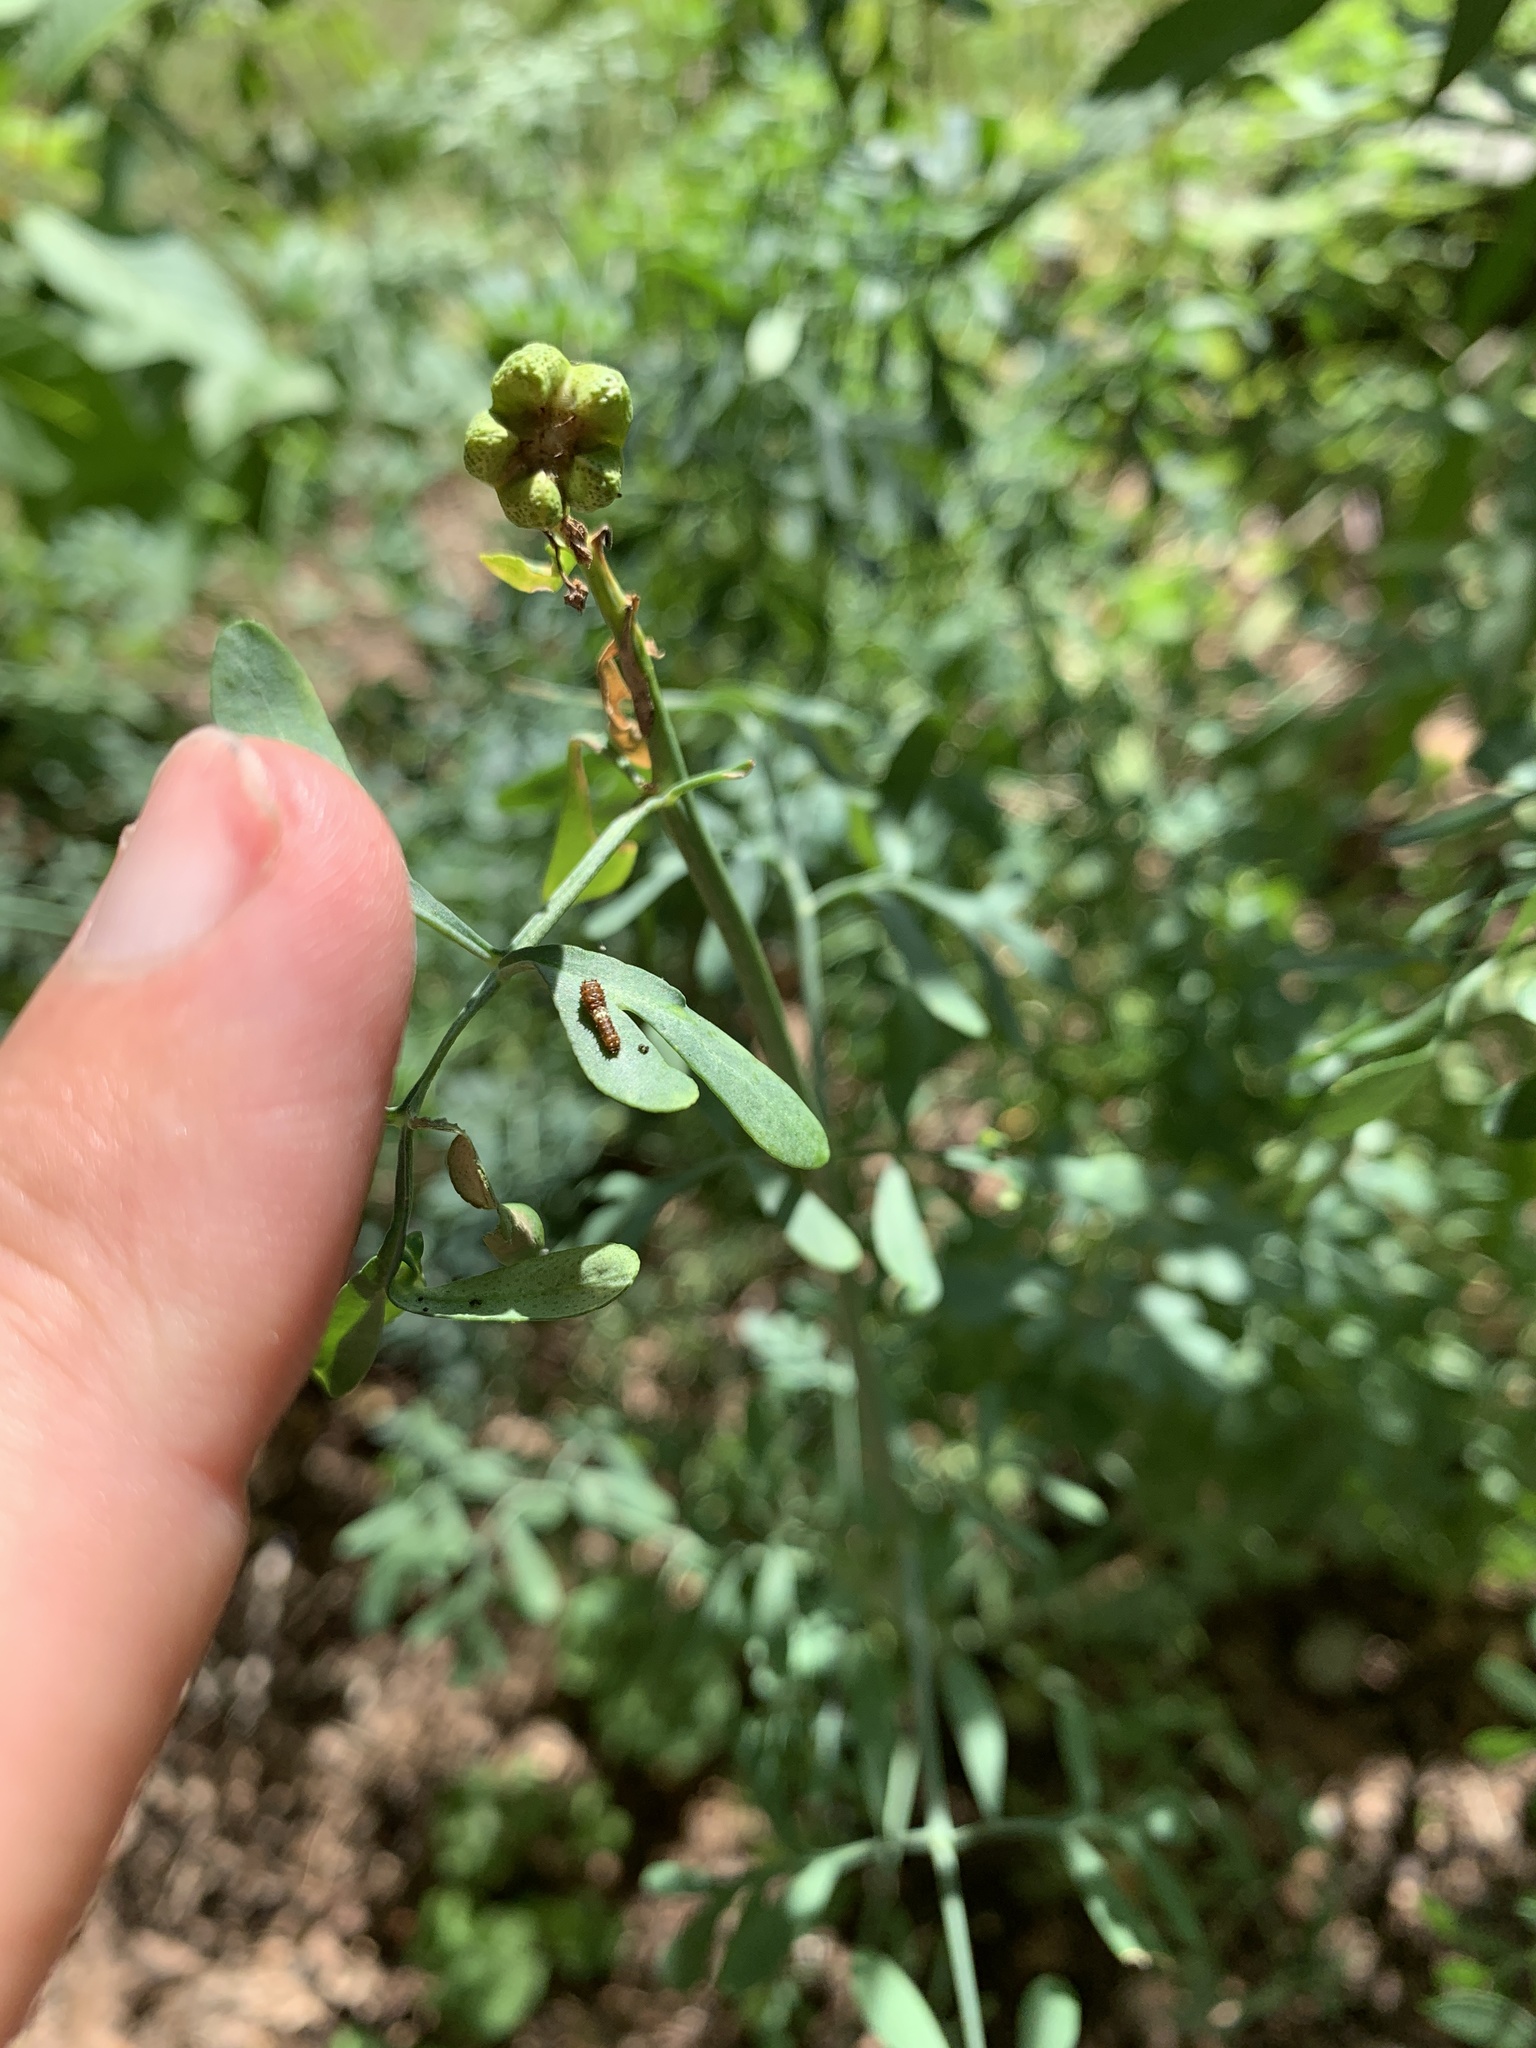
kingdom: Animalia
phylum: Arthropoda
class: Insecta
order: Lepidoptera
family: Papilionidae
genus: Papilio
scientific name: Papilio polyxenes
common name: Black swallowtail
